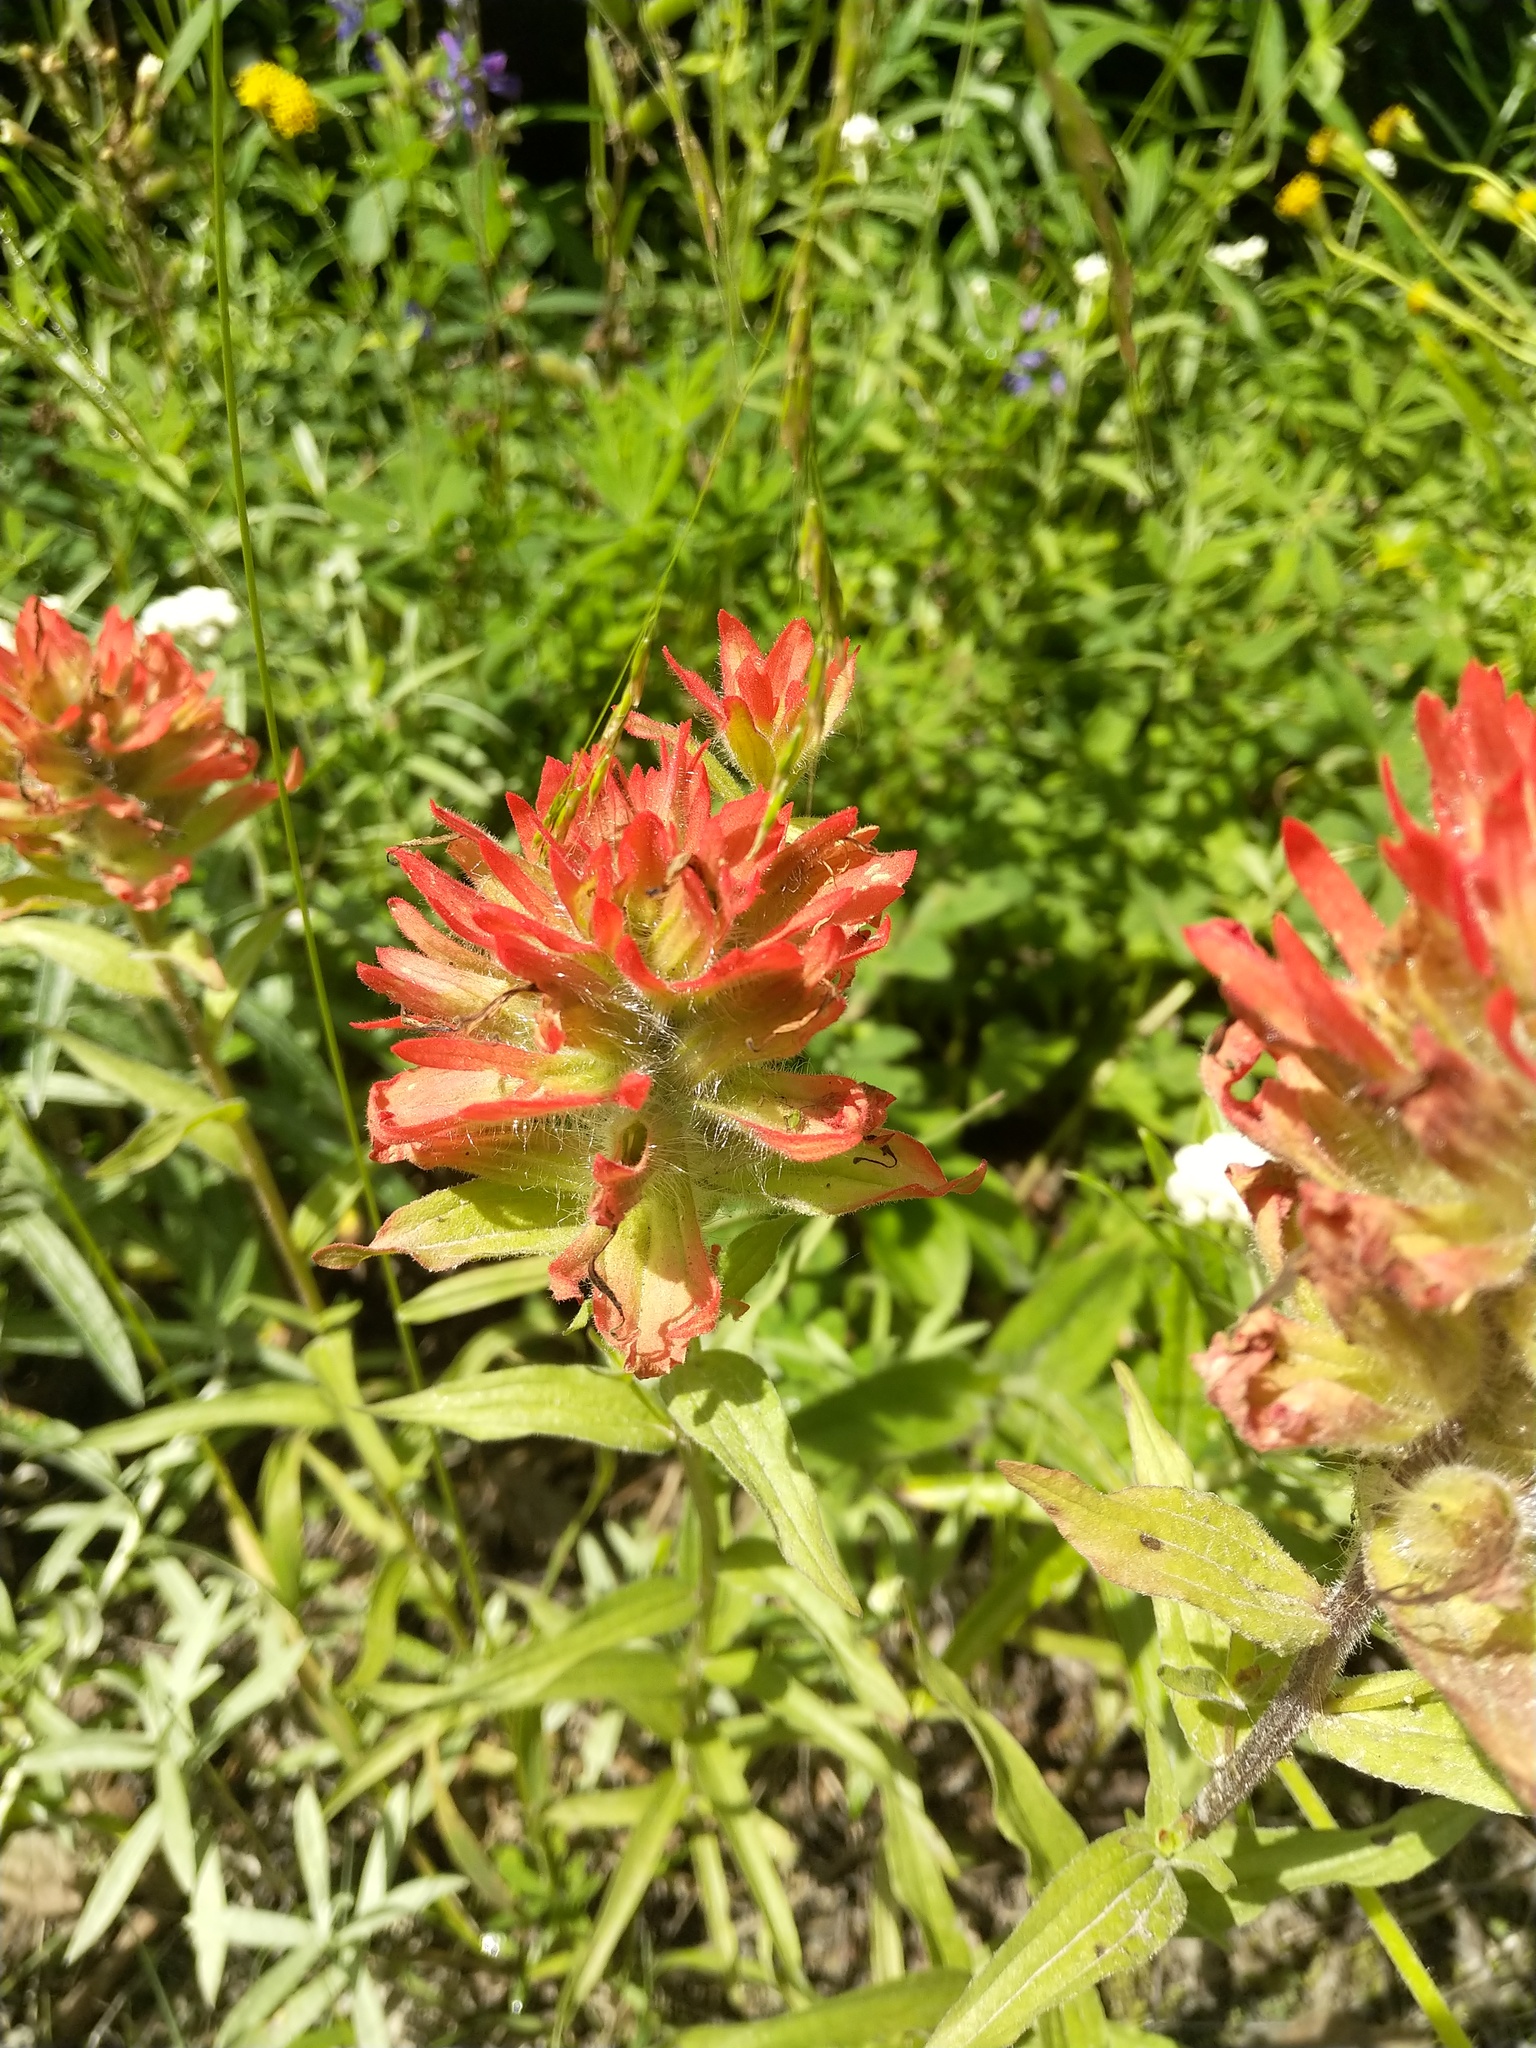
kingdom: Plantae
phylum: Tracheophyta
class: Magnoliopsida
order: Lamiales
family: Orobanchaceae
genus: Castilleja
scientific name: Castilleja miniata
